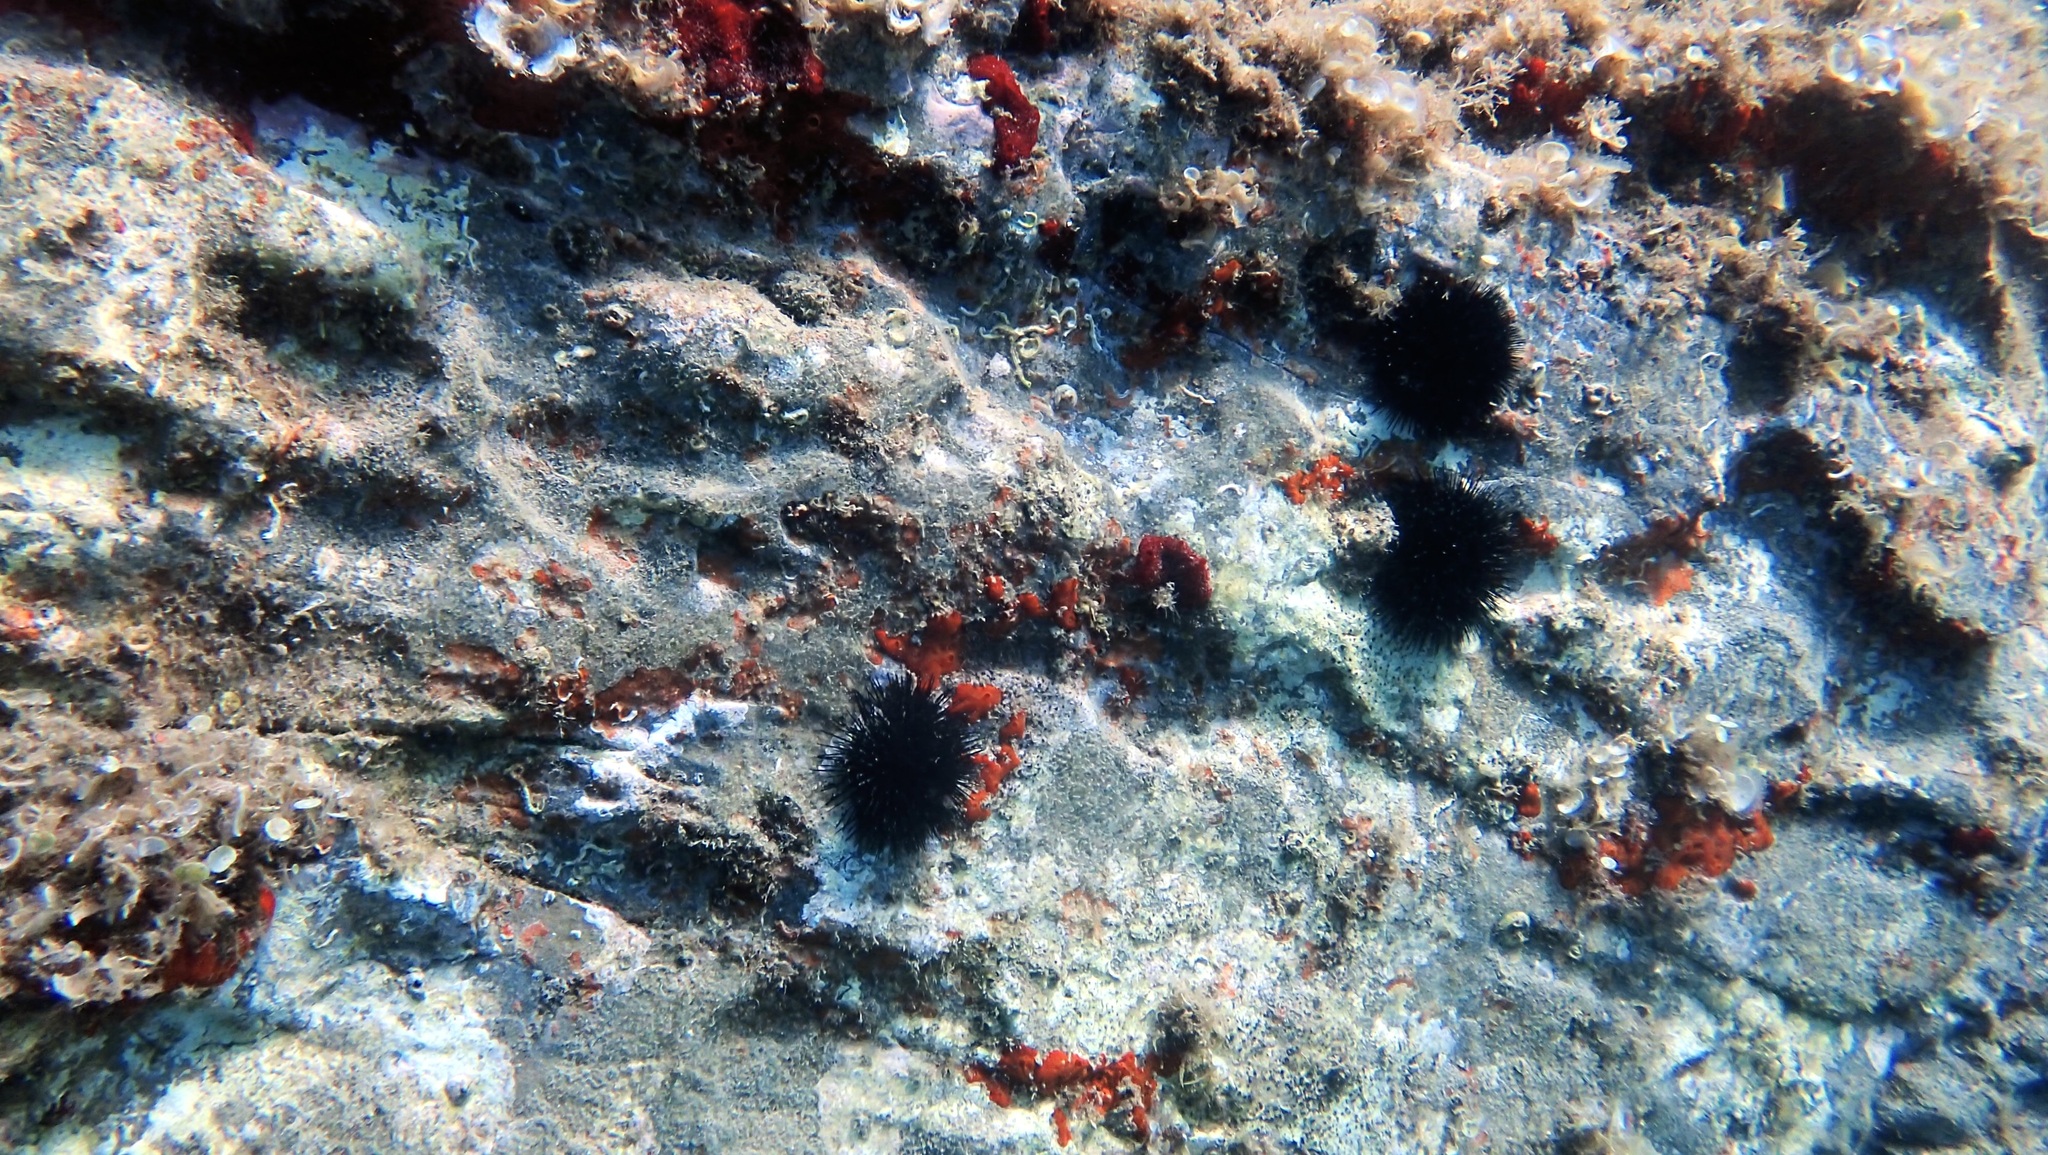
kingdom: Animalia
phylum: Echinodermata
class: Echinoidea
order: Arbacioida
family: Arbaciidae
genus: Arbacia
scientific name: Arbacia lixula
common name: Black sea urchin
